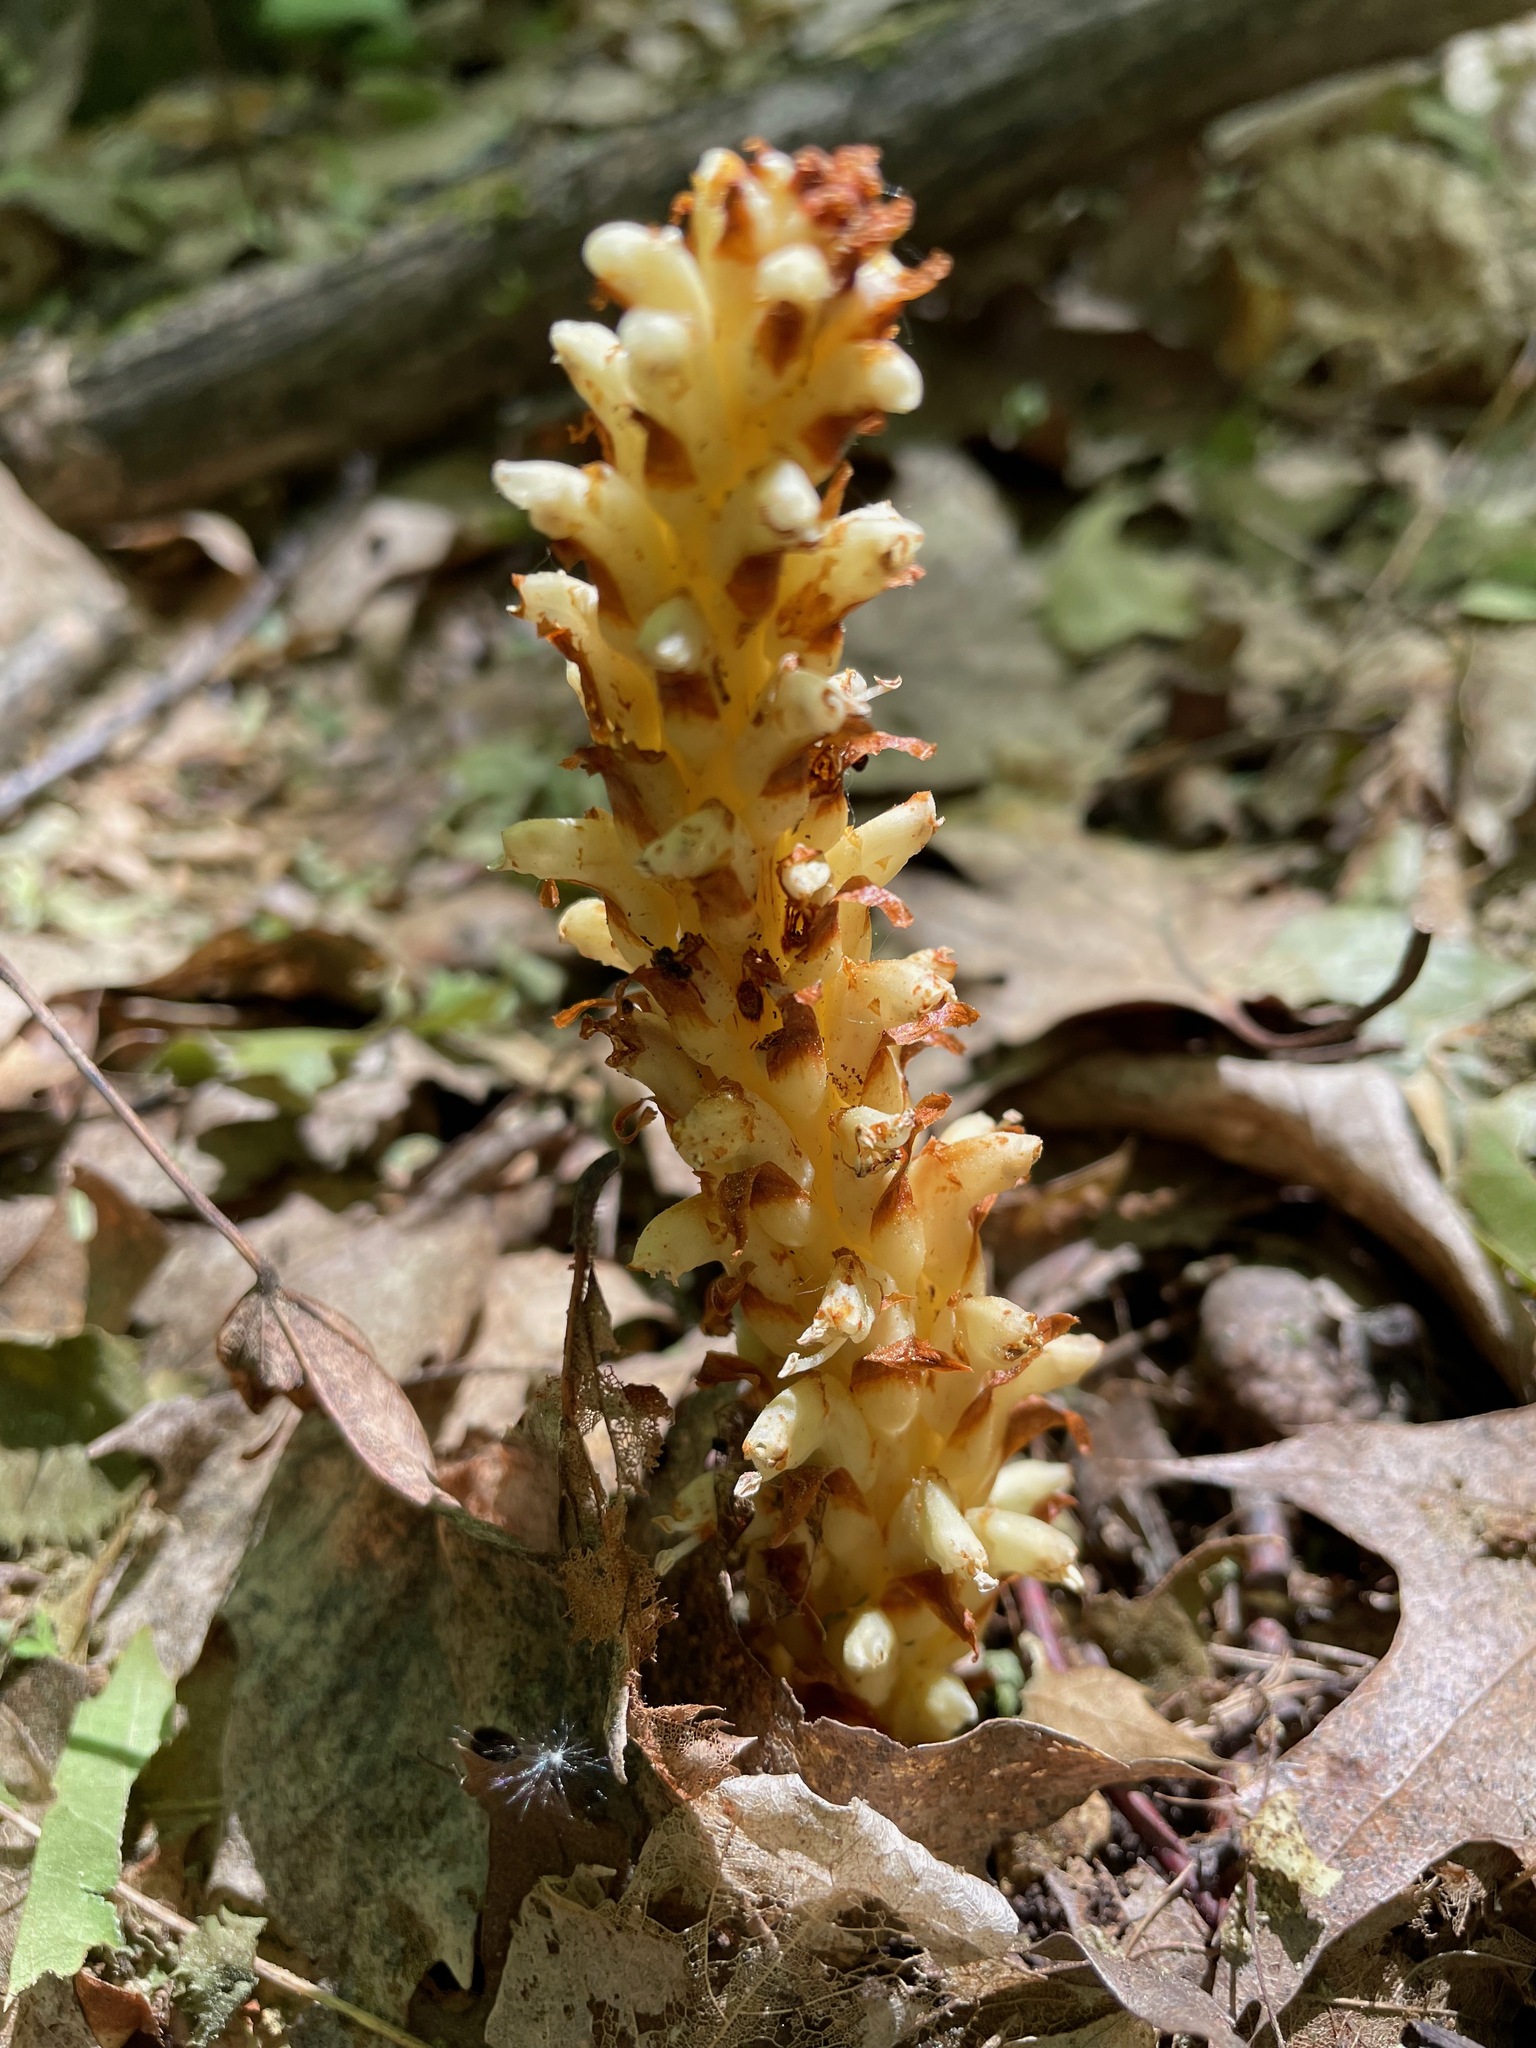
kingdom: Plantae
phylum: Tracheophyta
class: Magnoliopsida
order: Lamiales
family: Orobanchaceae
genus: Conopholis
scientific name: Conopholis americana
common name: American cancer-root
